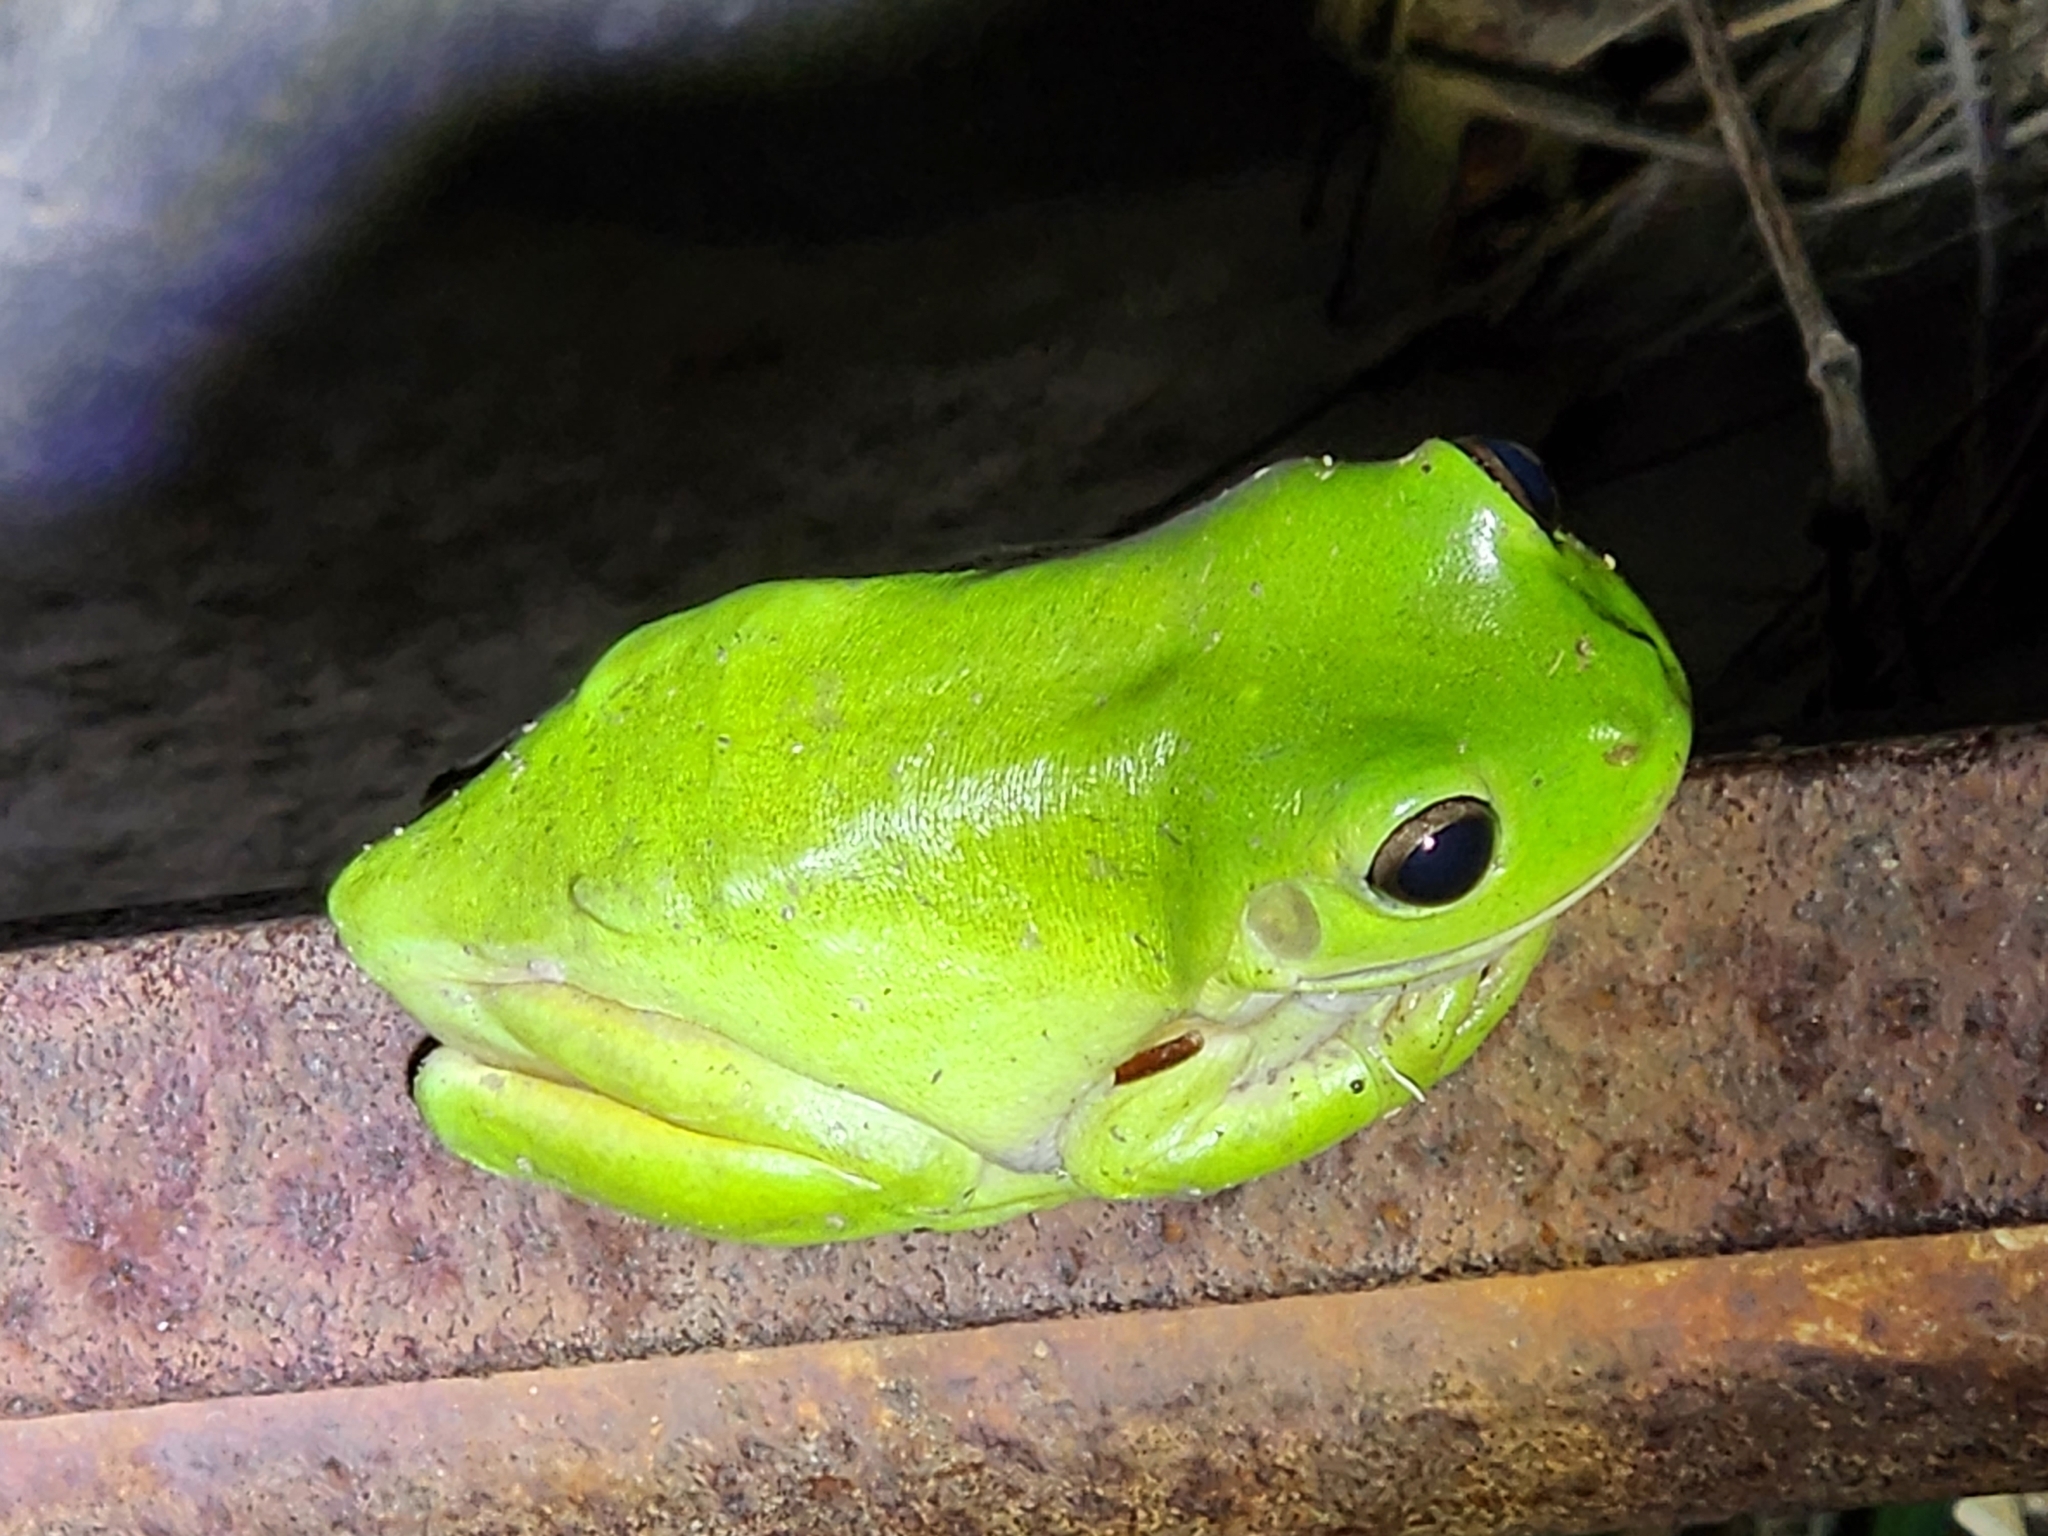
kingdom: Animalia
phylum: Chordata
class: Amphibia
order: Anura
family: Pelodryadidae
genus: Ranoidea
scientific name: Ranoidea caerulea
